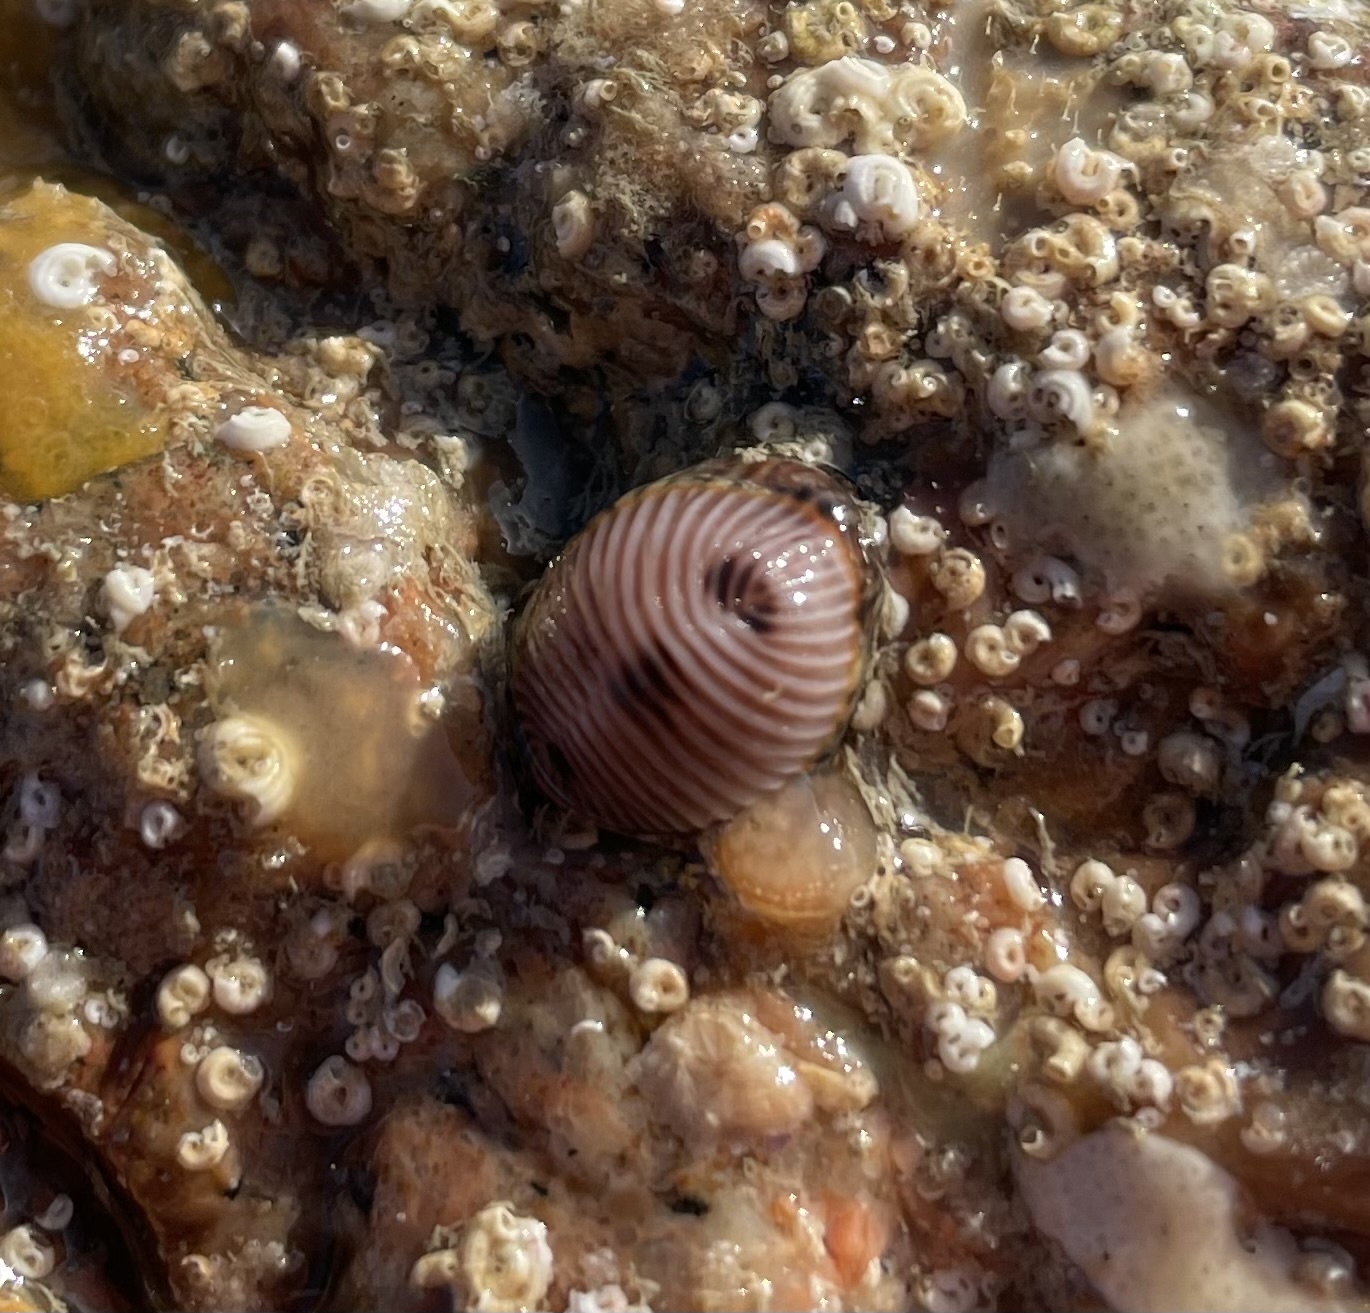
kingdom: Animalia
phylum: Mollusca
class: Gastropoda
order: Littorinimorpha
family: Triviidae
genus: Trivia
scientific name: Trivia monacha
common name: Spotted cowrie
